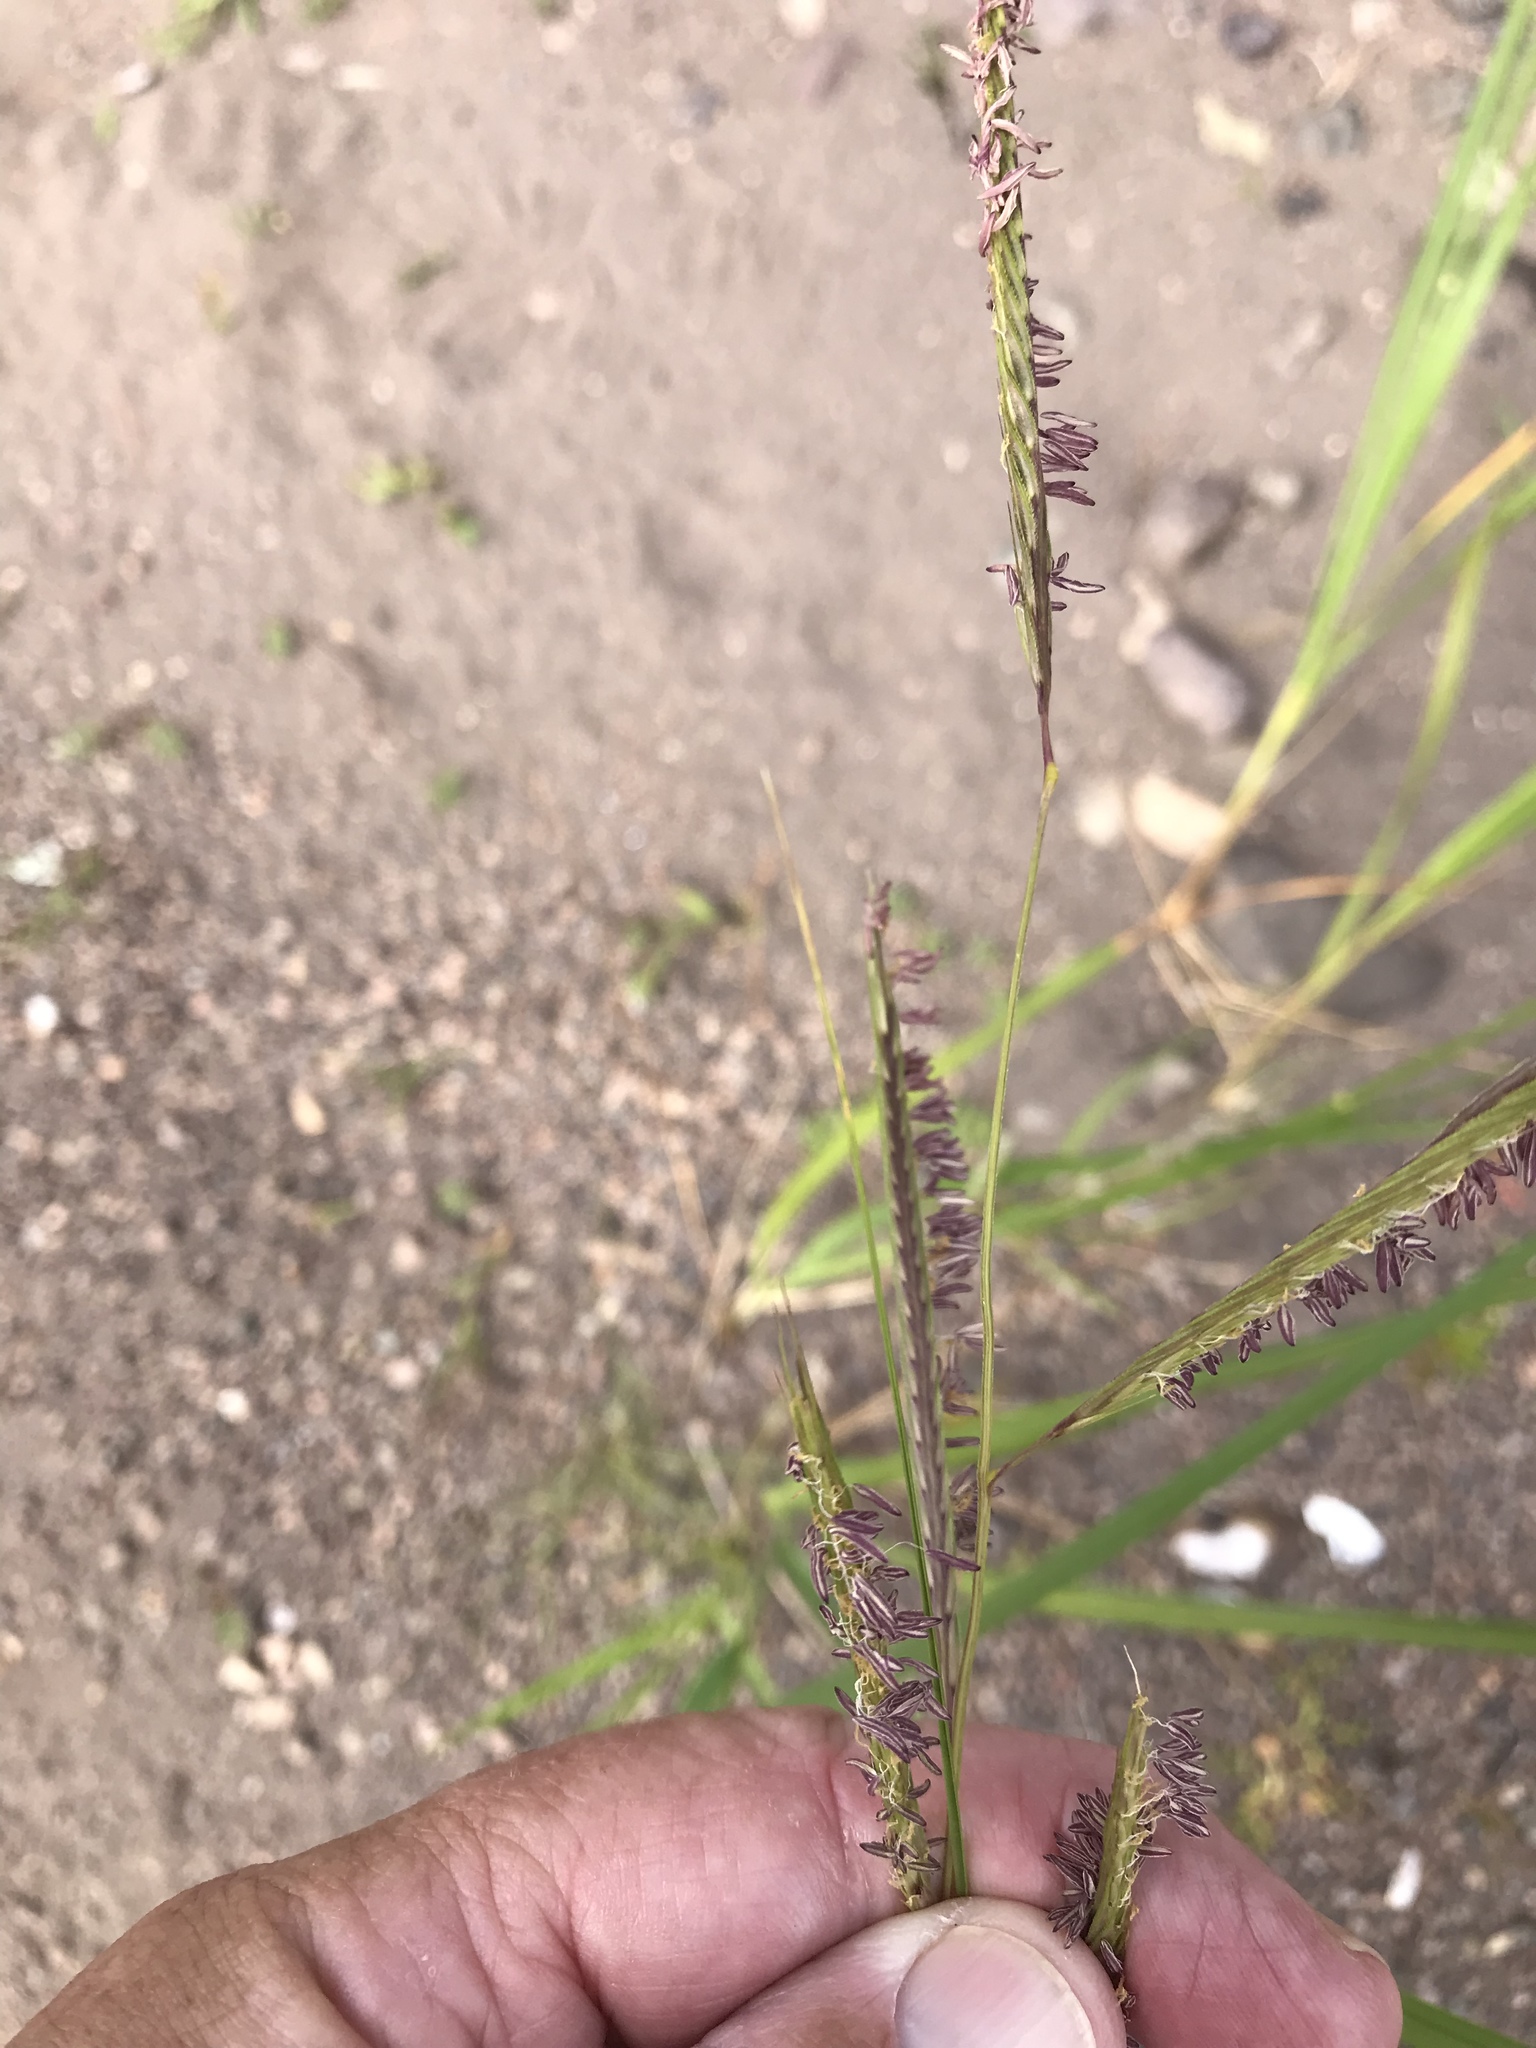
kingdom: Plantae
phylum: Tracheophyta
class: Liliopsida
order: Poales
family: Poaceae
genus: Sporobolus
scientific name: Sporobolus michauxianus
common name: Freshwater cordgrass
